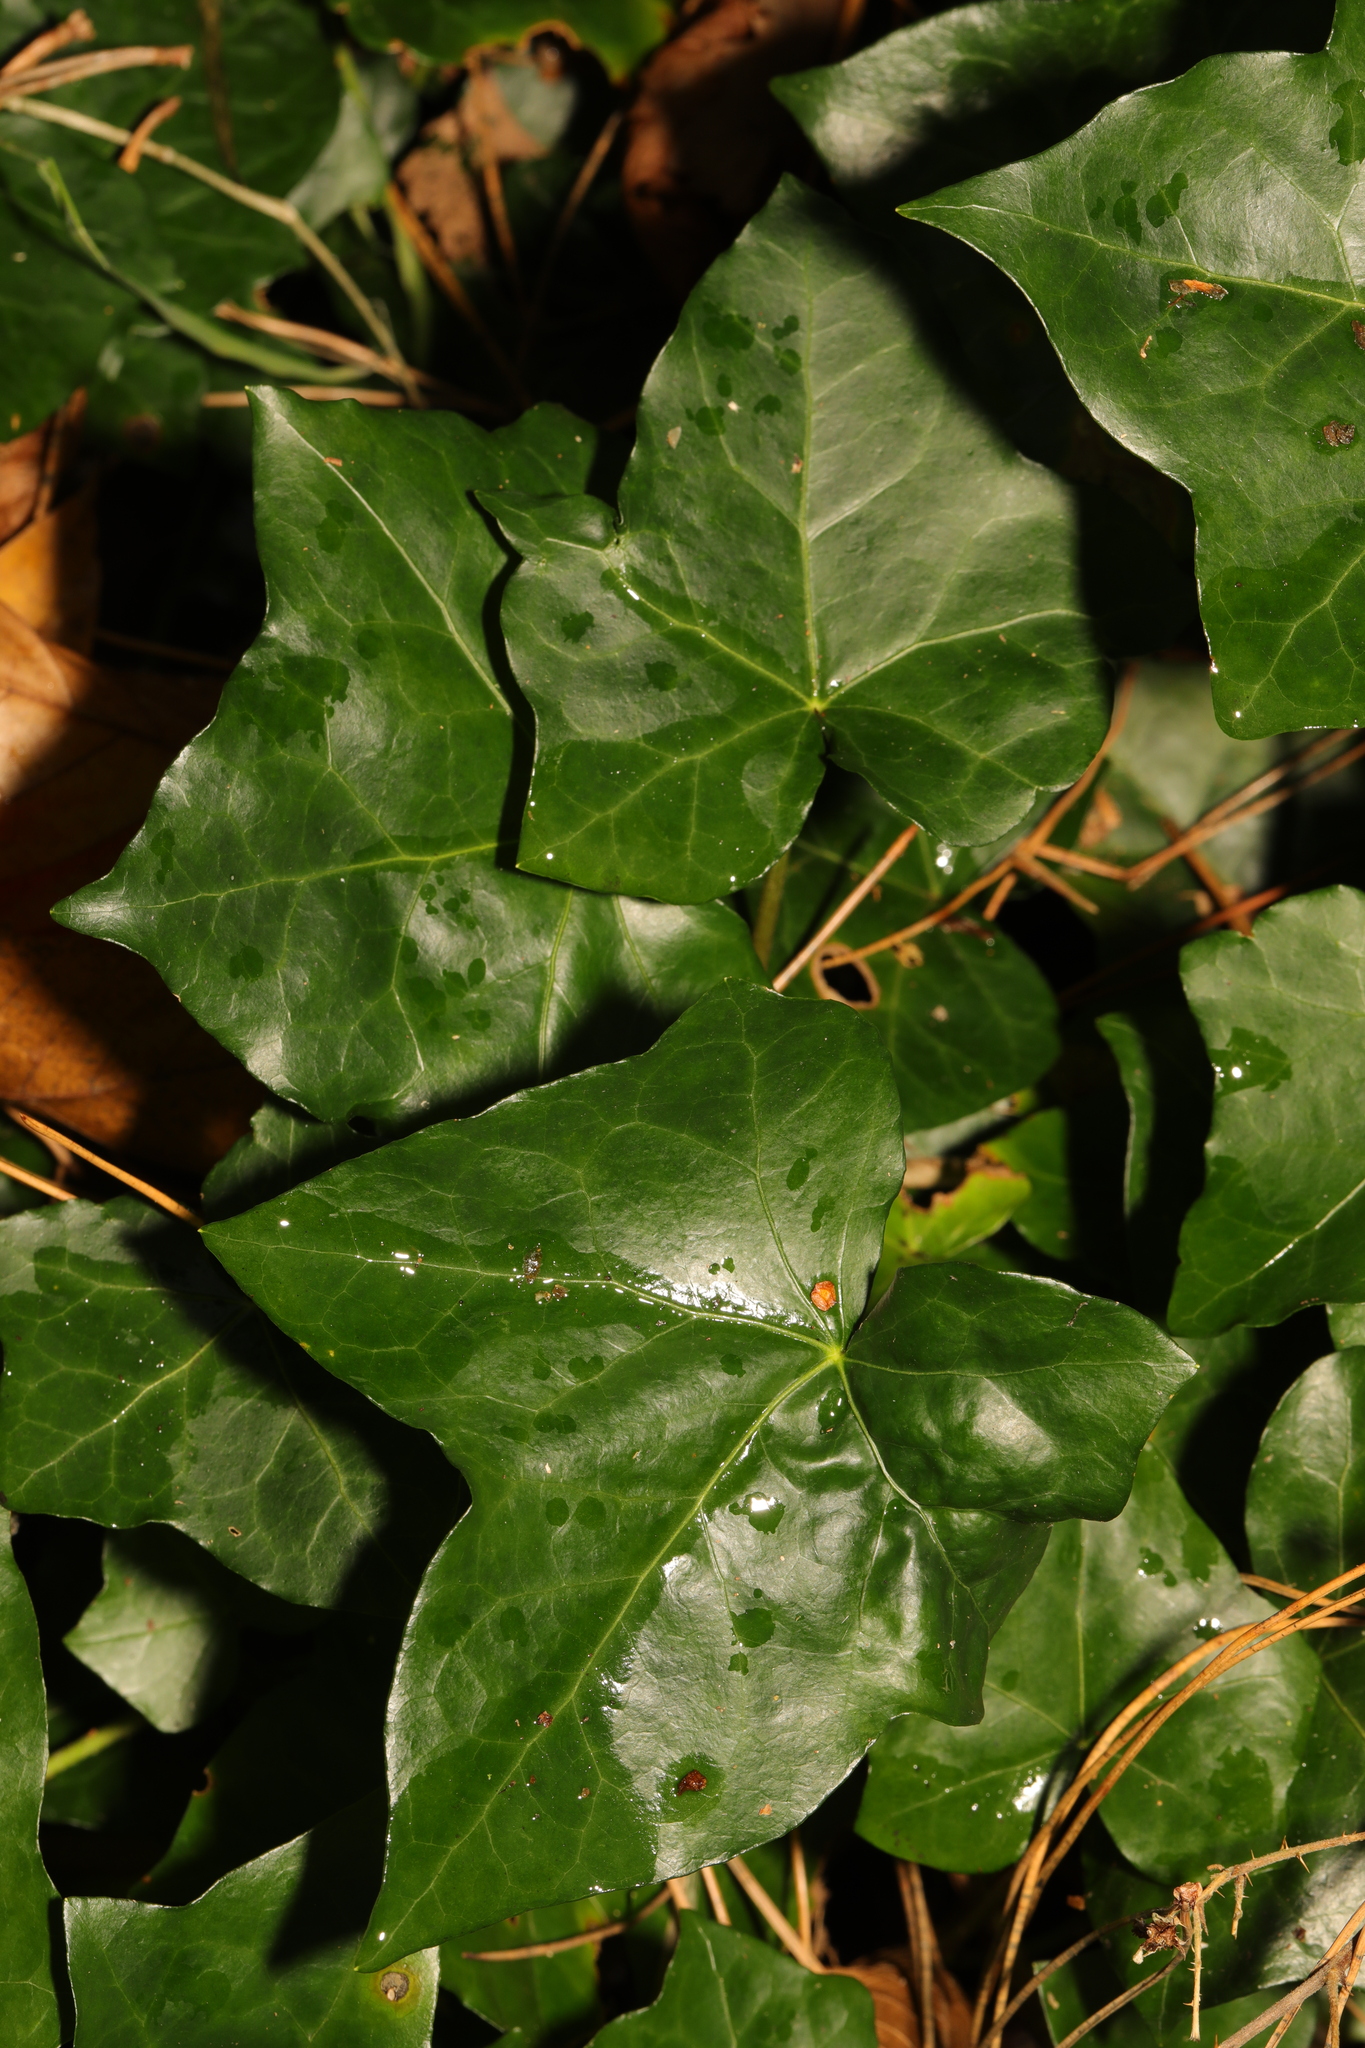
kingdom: Plantae
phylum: Tracheophyta
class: Magnoliopsida
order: Apiales
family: Araliaceae
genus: Hedera
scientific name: Hedera helix
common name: Ivy
